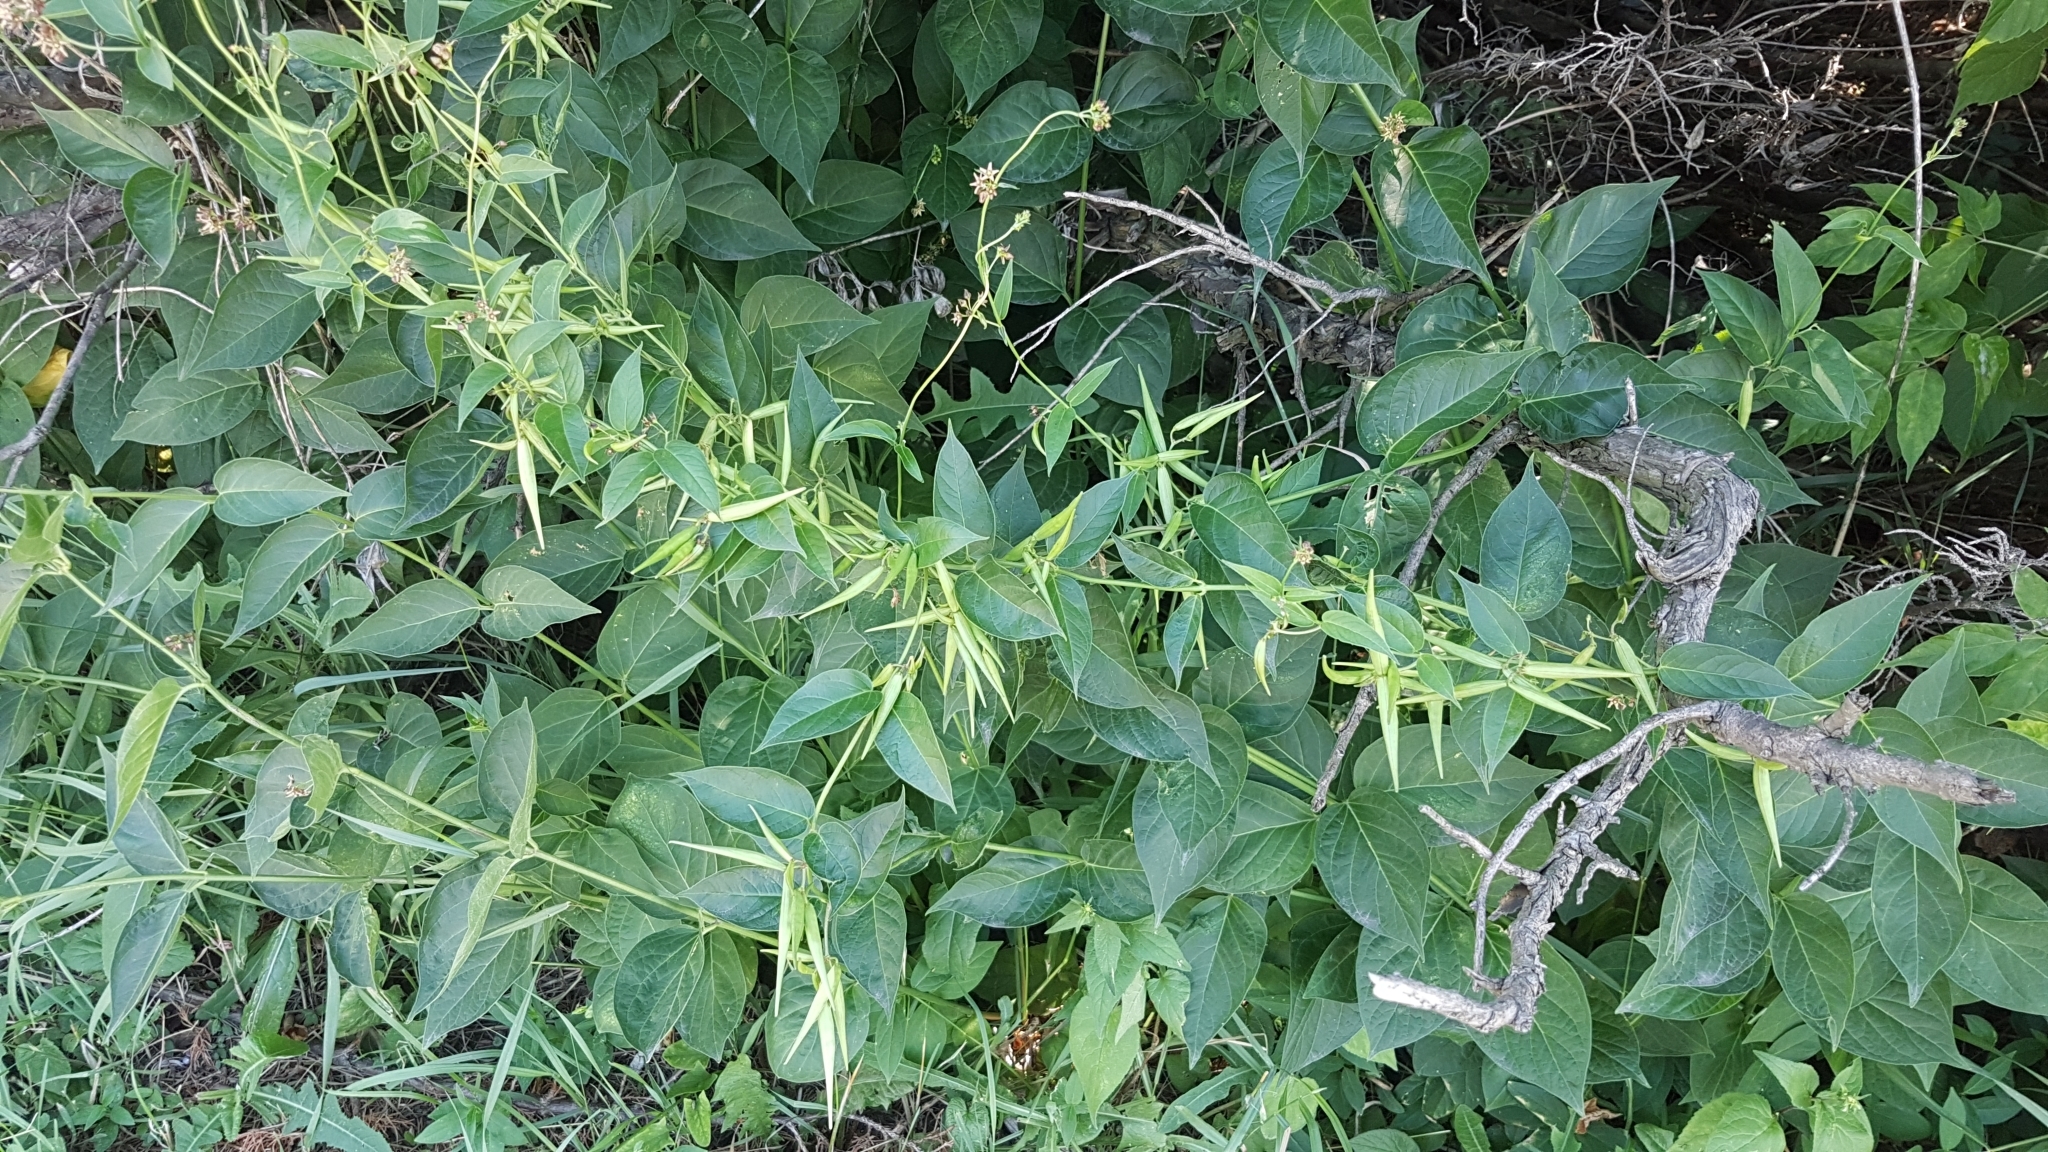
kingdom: Plantae
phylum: Tracheophyta
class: Magnoliopsida
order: Gentianales
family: Apocynaceae
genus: Vincetoxicum
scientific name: Vincetoxicum rossicum
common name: Dog-strangling vine
